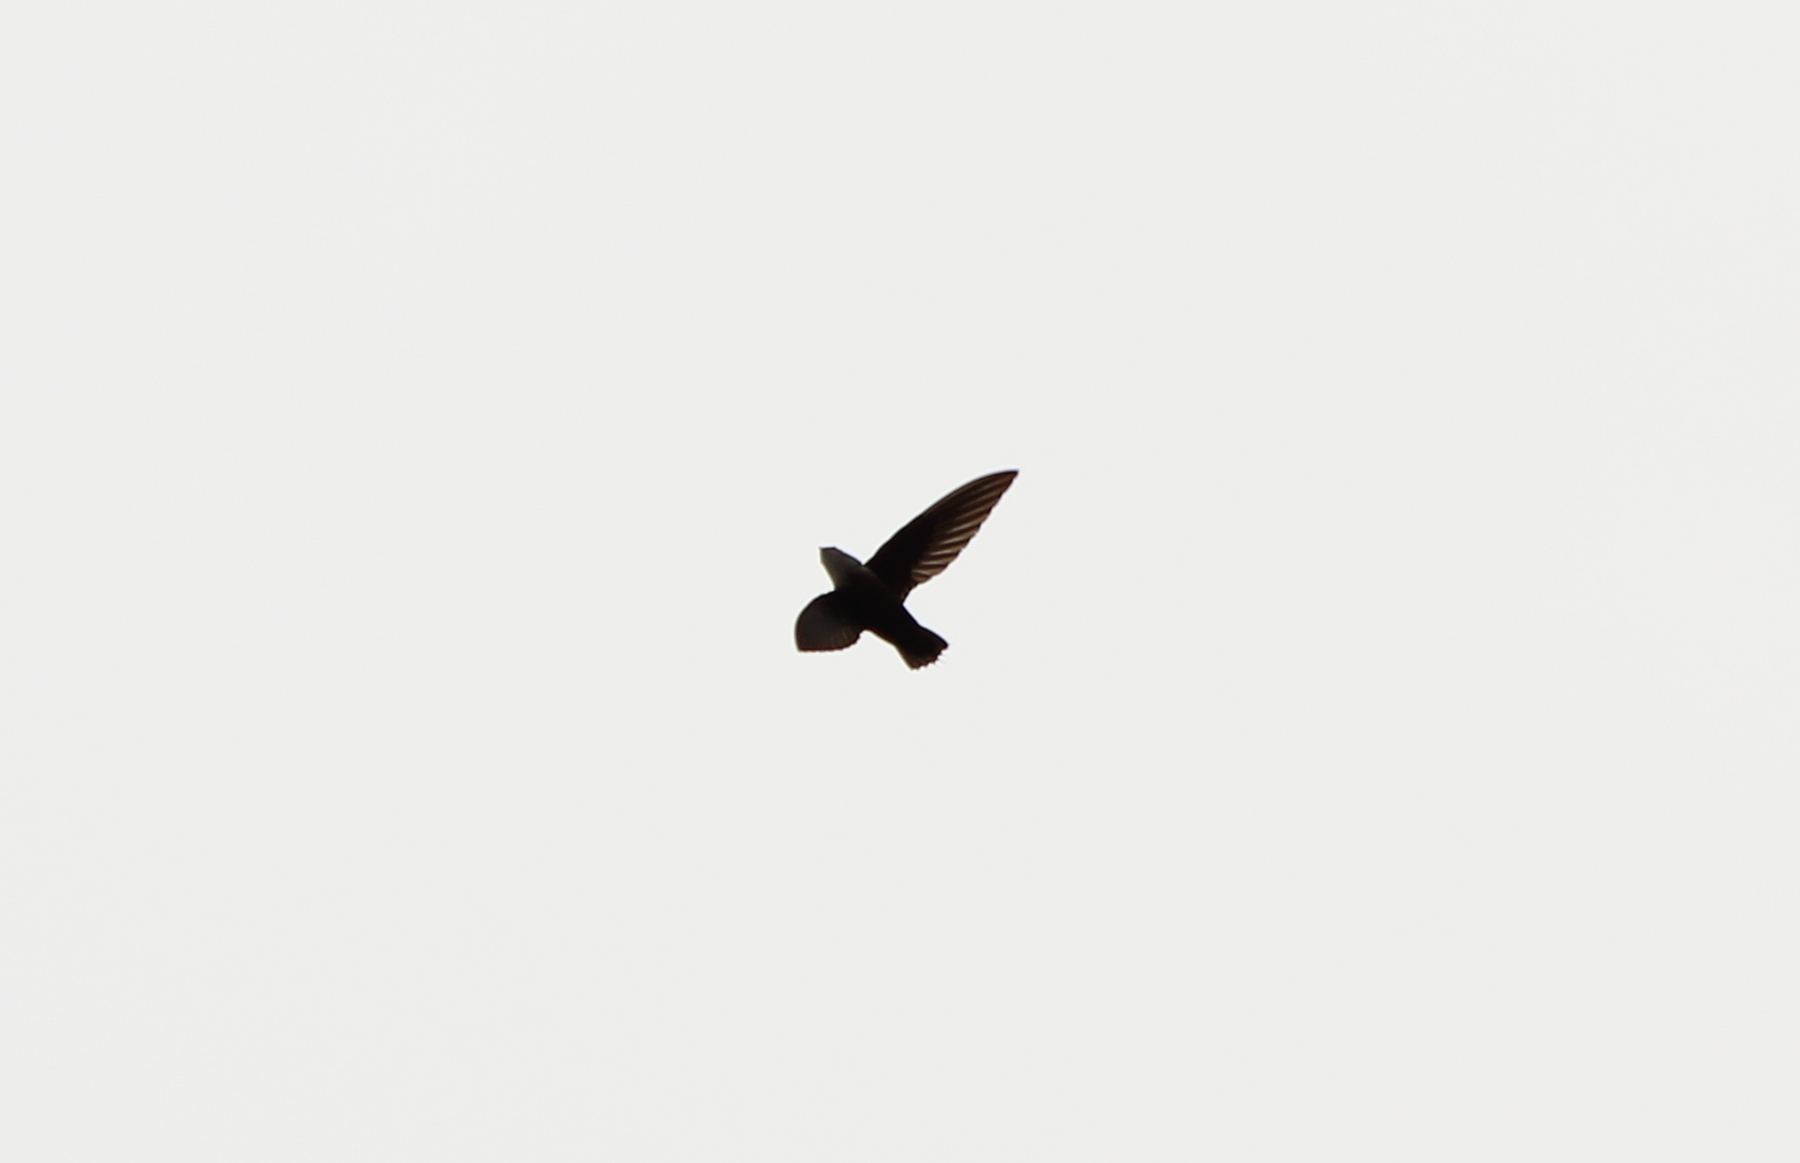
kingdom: Animalia
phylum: Chordata
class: Aves
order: Apodiformes
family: Apodidae
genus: Chaetura
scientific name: Chaetura pelagica
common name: Chimney swift
